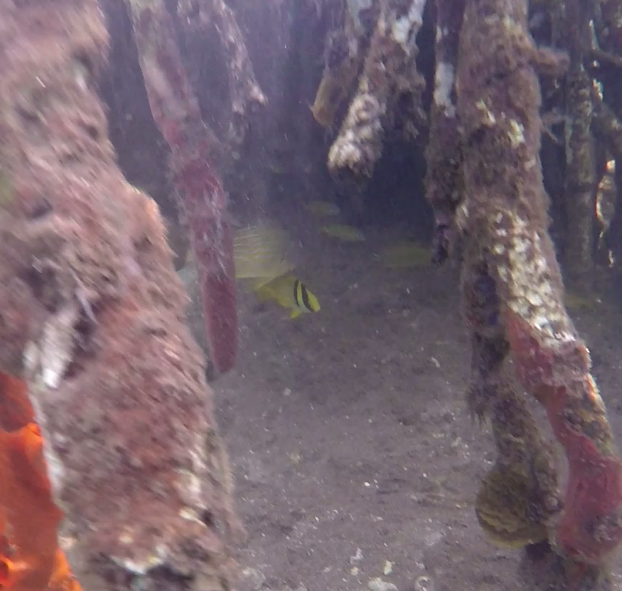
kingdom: Animalia
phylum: Chordata
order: Perciformes
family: Haemulidae
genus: Anisotremus
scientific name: Anisotremus virginicus
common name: Porkfish
